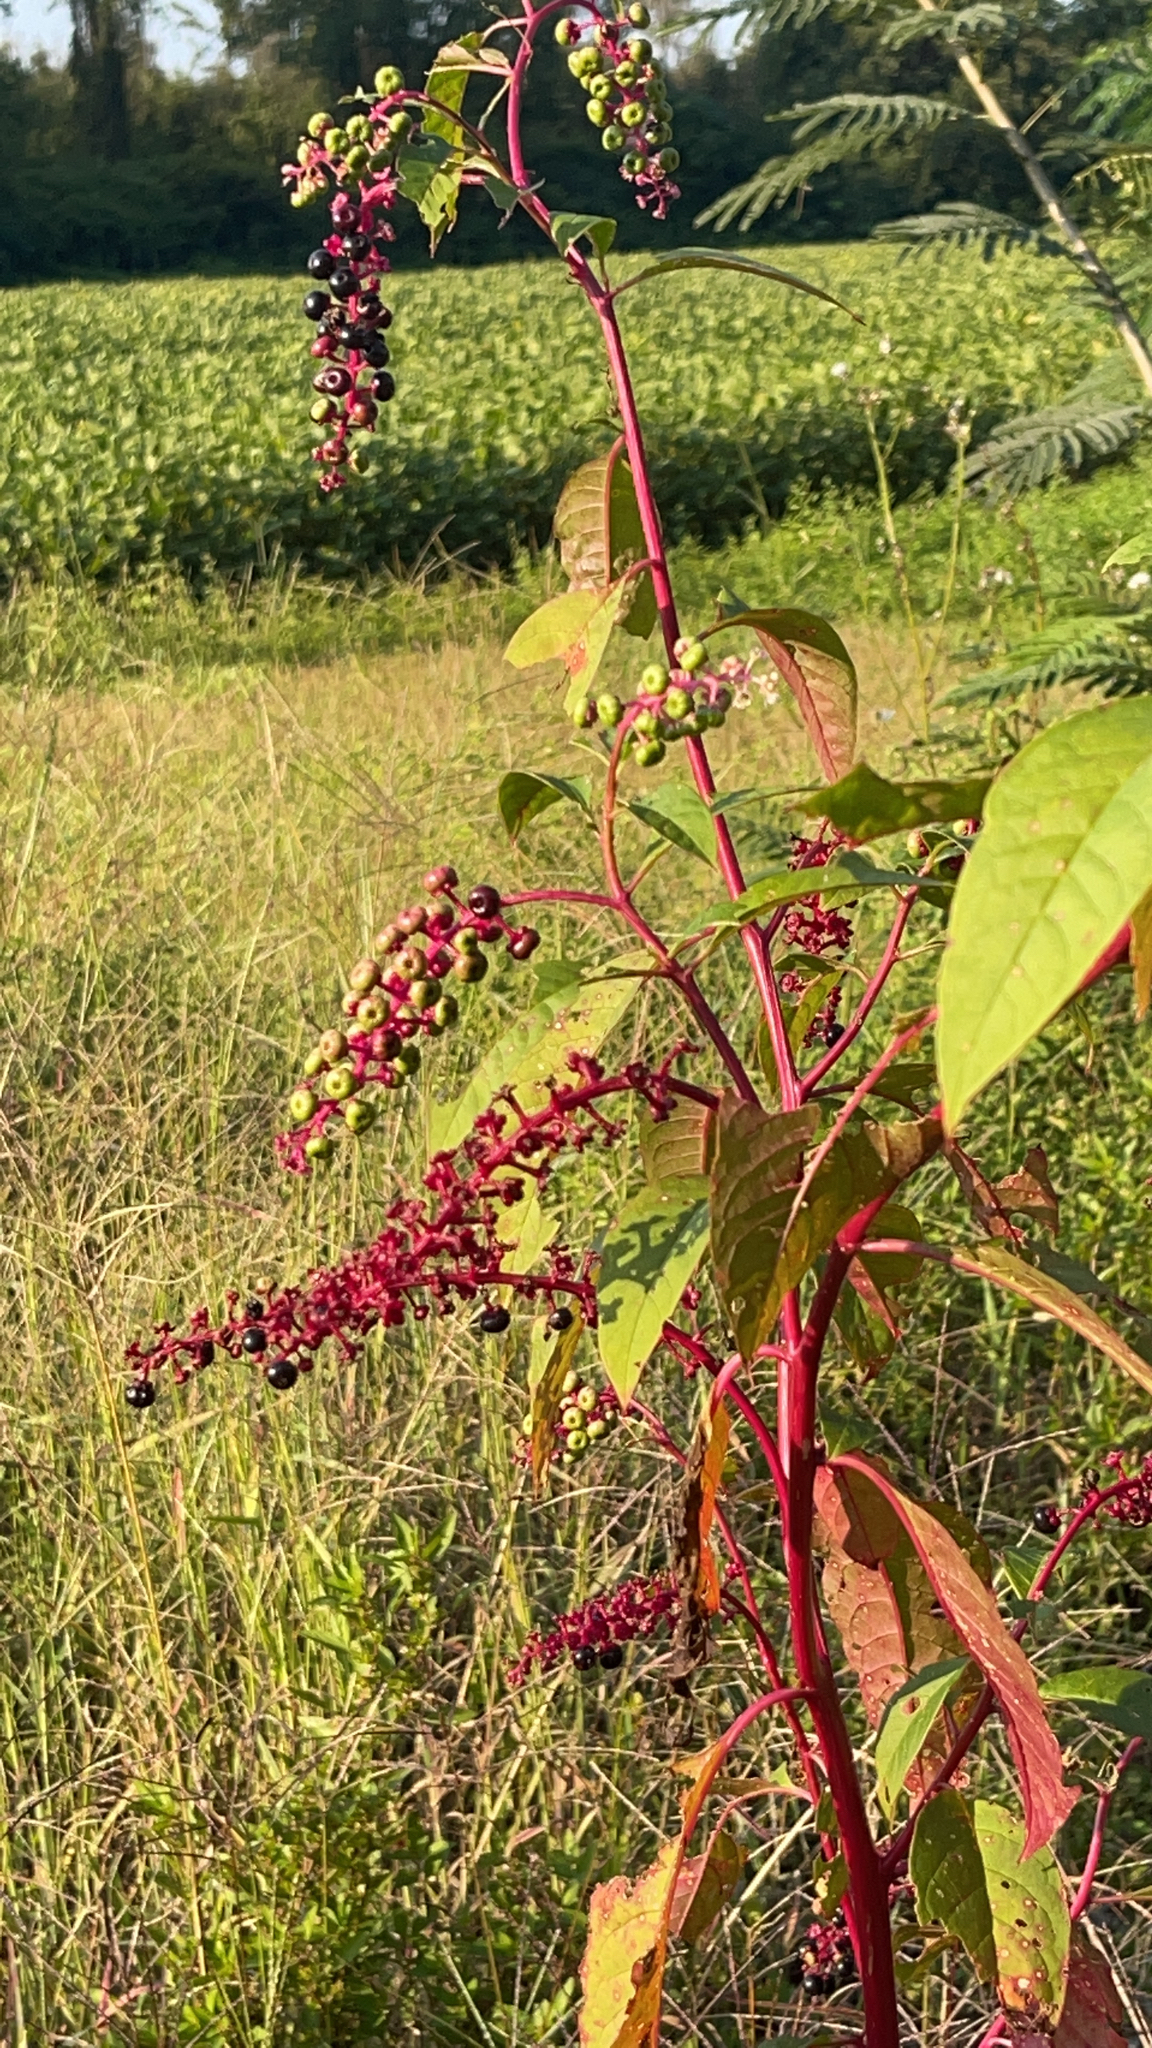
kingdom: Plantae
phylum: Tracheophyta
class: Magnoliopsida
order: Caryophyllales
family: Phytolaccaceae
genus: Phytolacca
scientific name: Phytolacca americana
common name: American pokeweed
